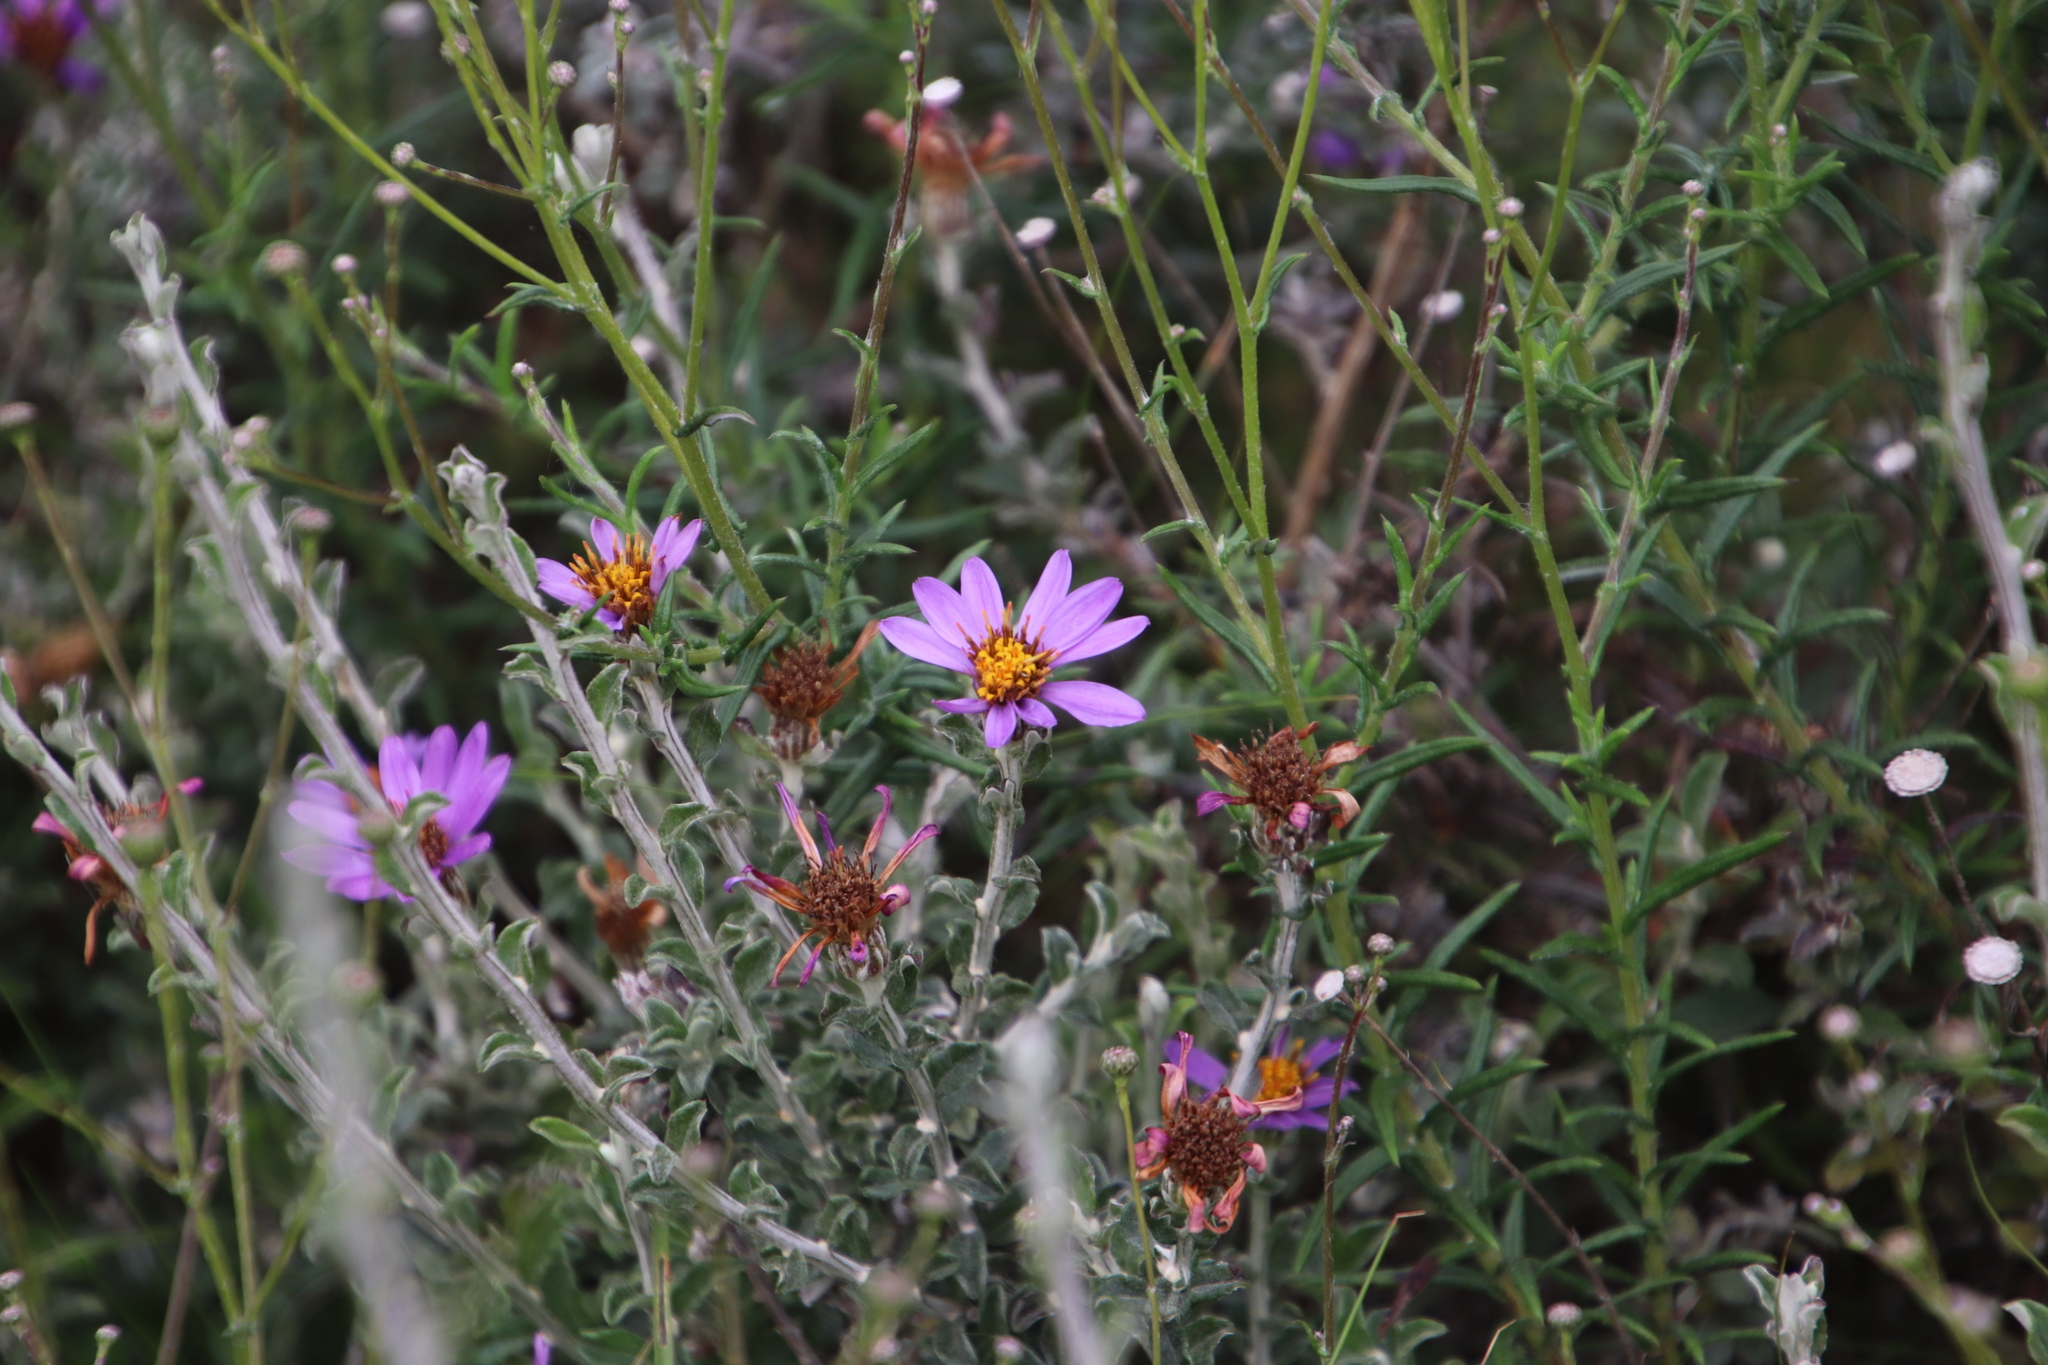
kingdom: Plantae
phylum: Tracheophyta
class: Magnoliopsida
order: Asterales
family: Asteraceae
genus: Printzia
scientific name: Printzia polifolia
